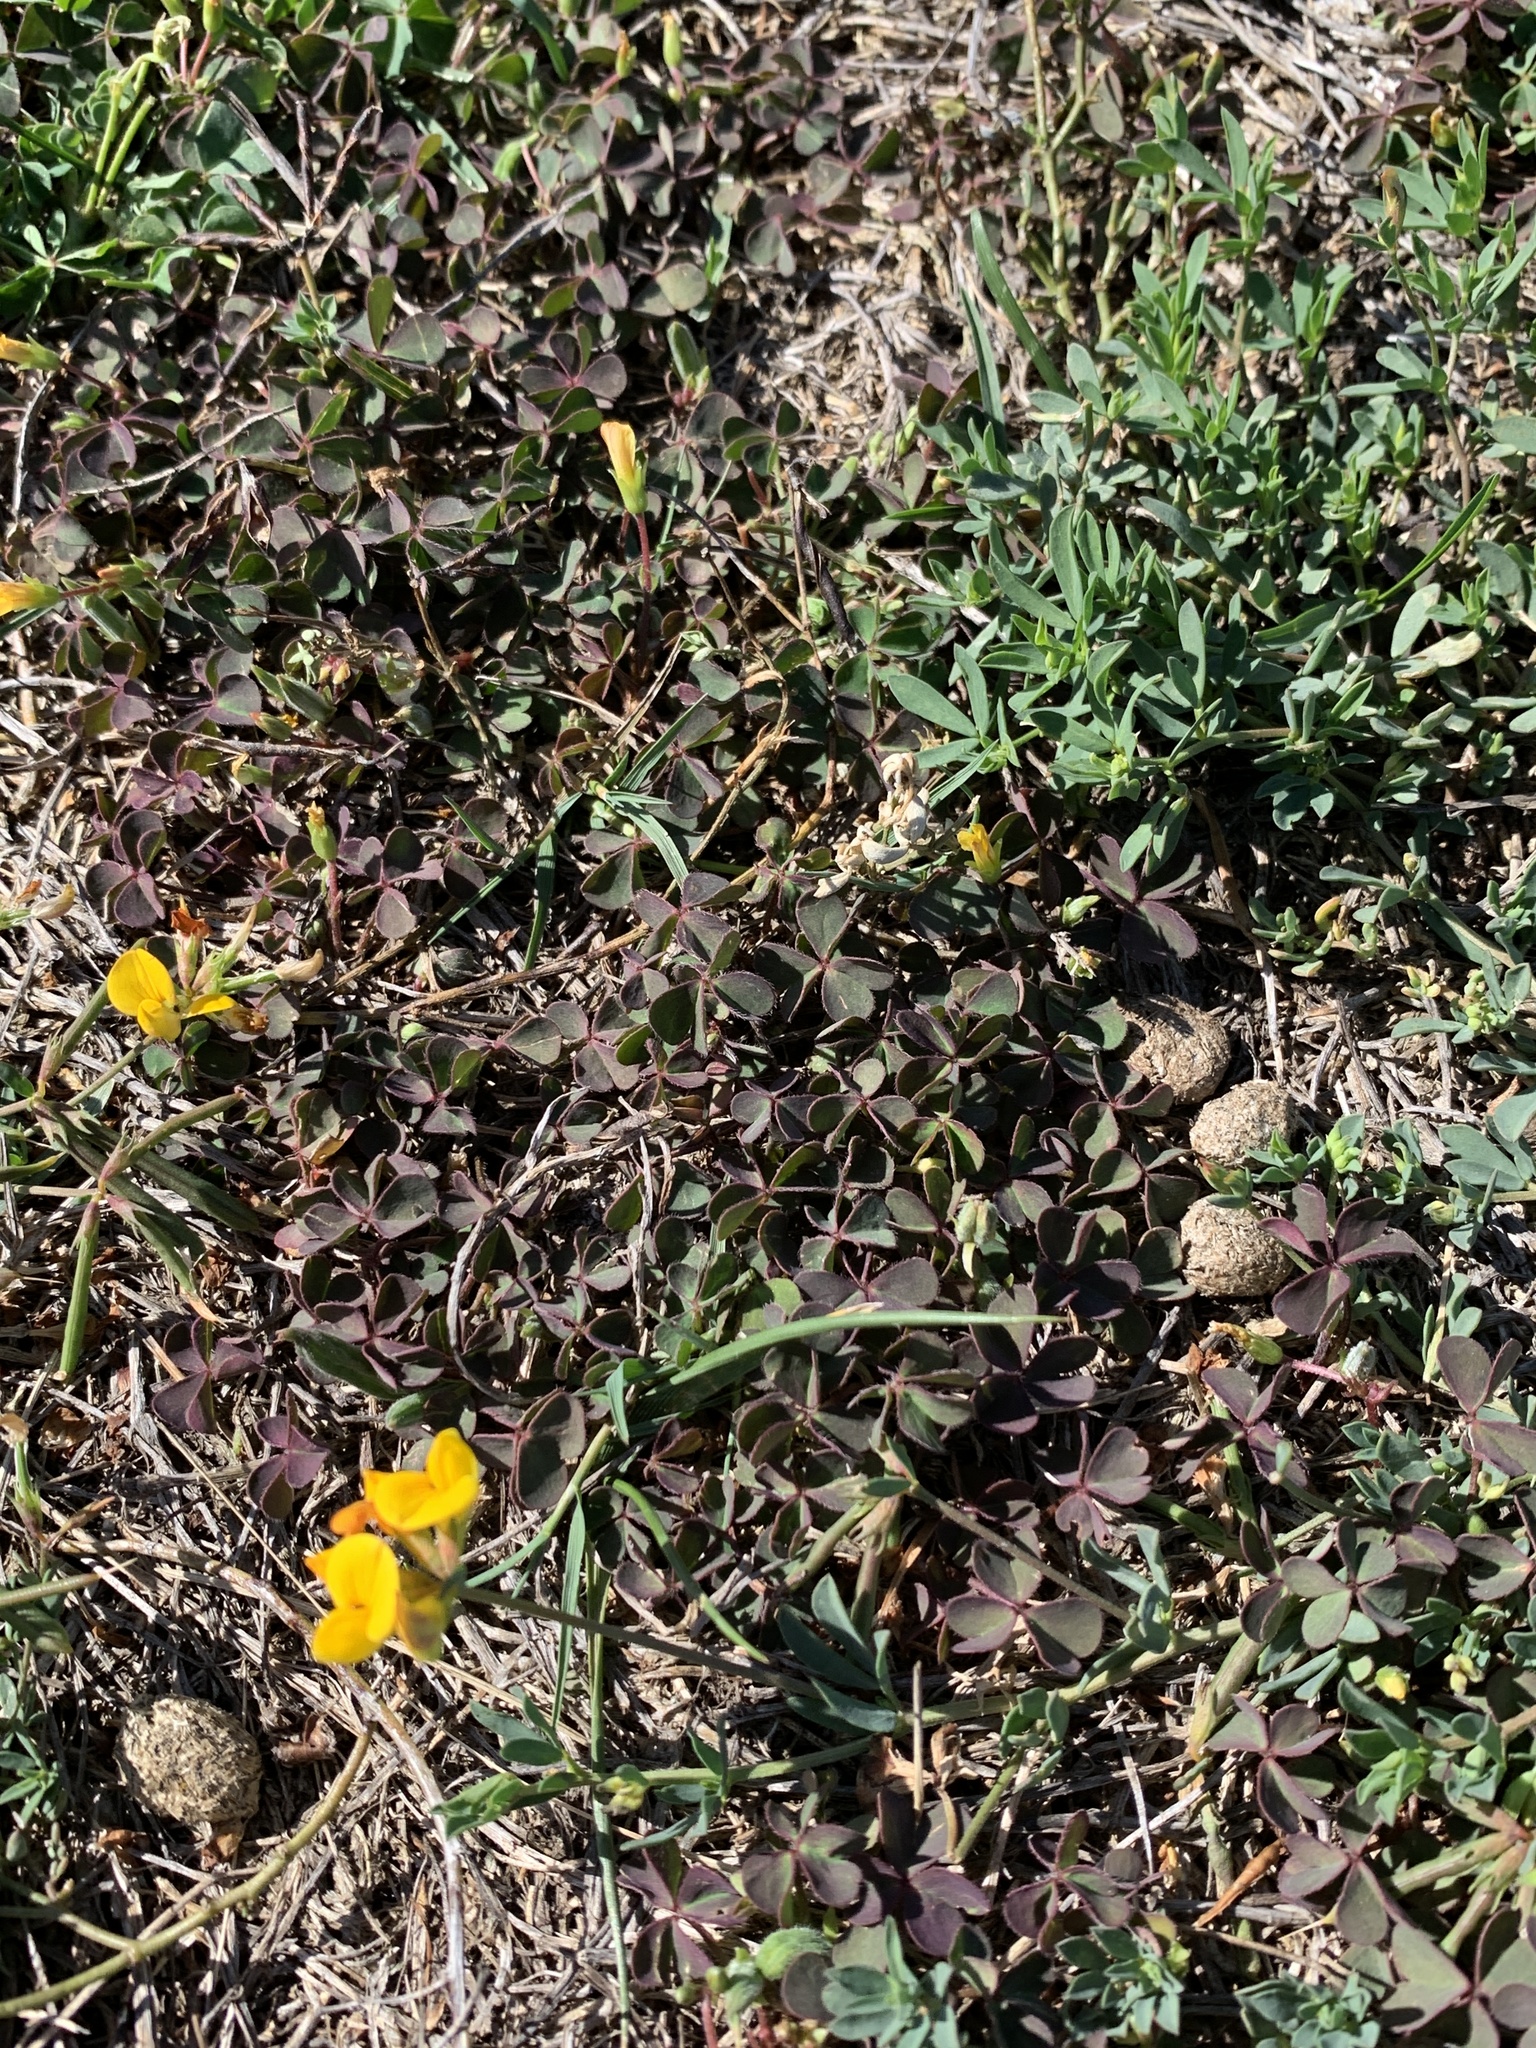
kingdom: Plantae
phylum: Tracheophyta
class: Magnoliopsida
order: Oxalidales
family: Oxalidaceae
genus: Oxalis
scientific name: Oxalis corniculata
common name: Procumbent yellow-sorrel
